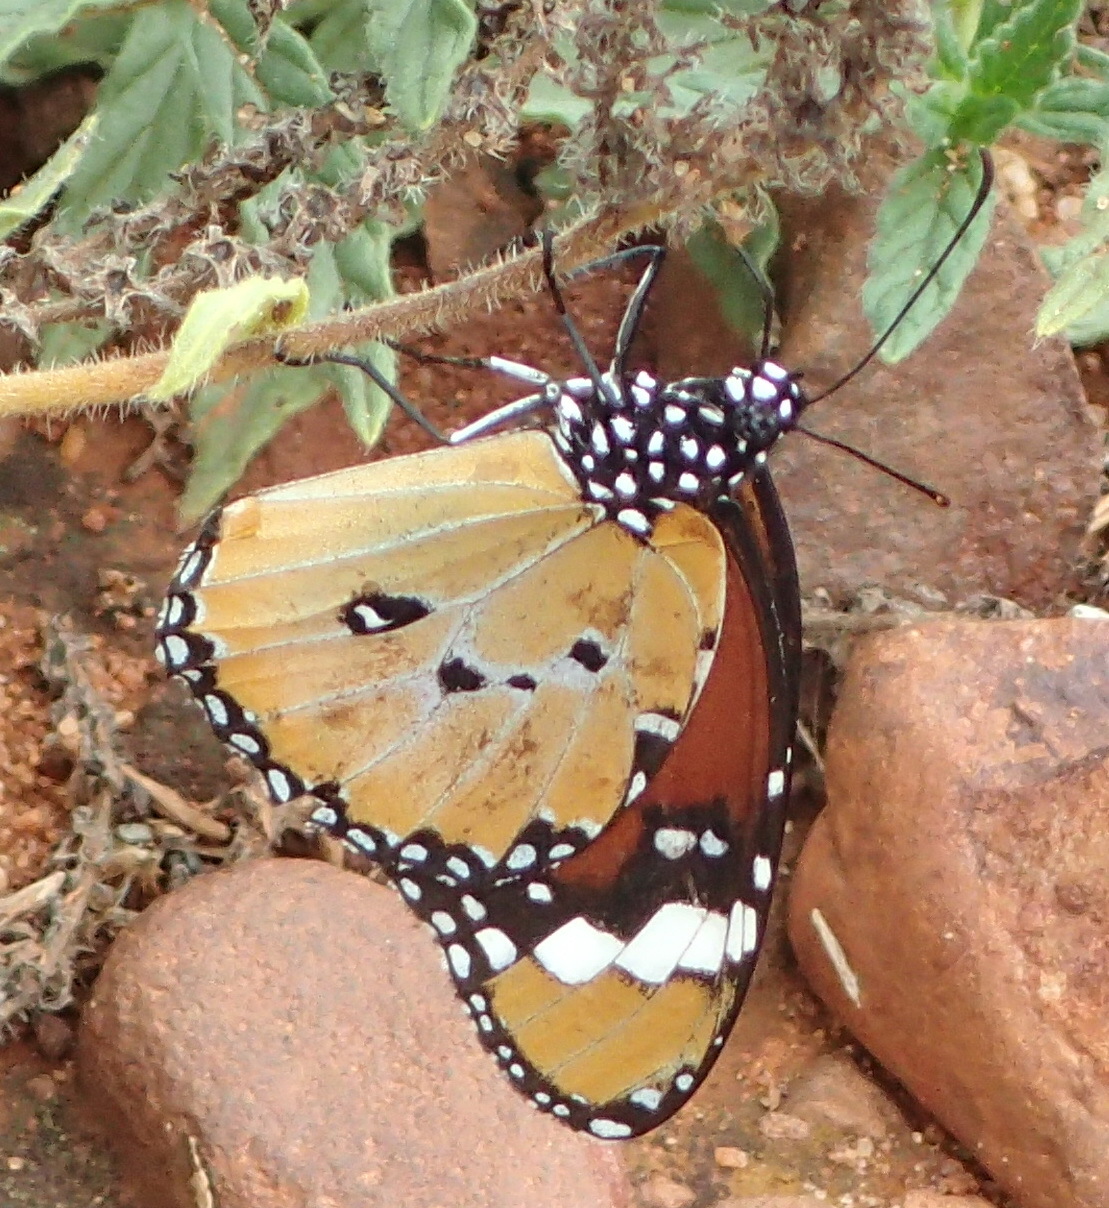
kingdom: Animalia
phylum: Arthropoda
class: Insecta
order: Lepidoptera
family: Nymphalidae
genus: Danaus
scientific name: Danaus chrysippus
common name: Plain tiger
